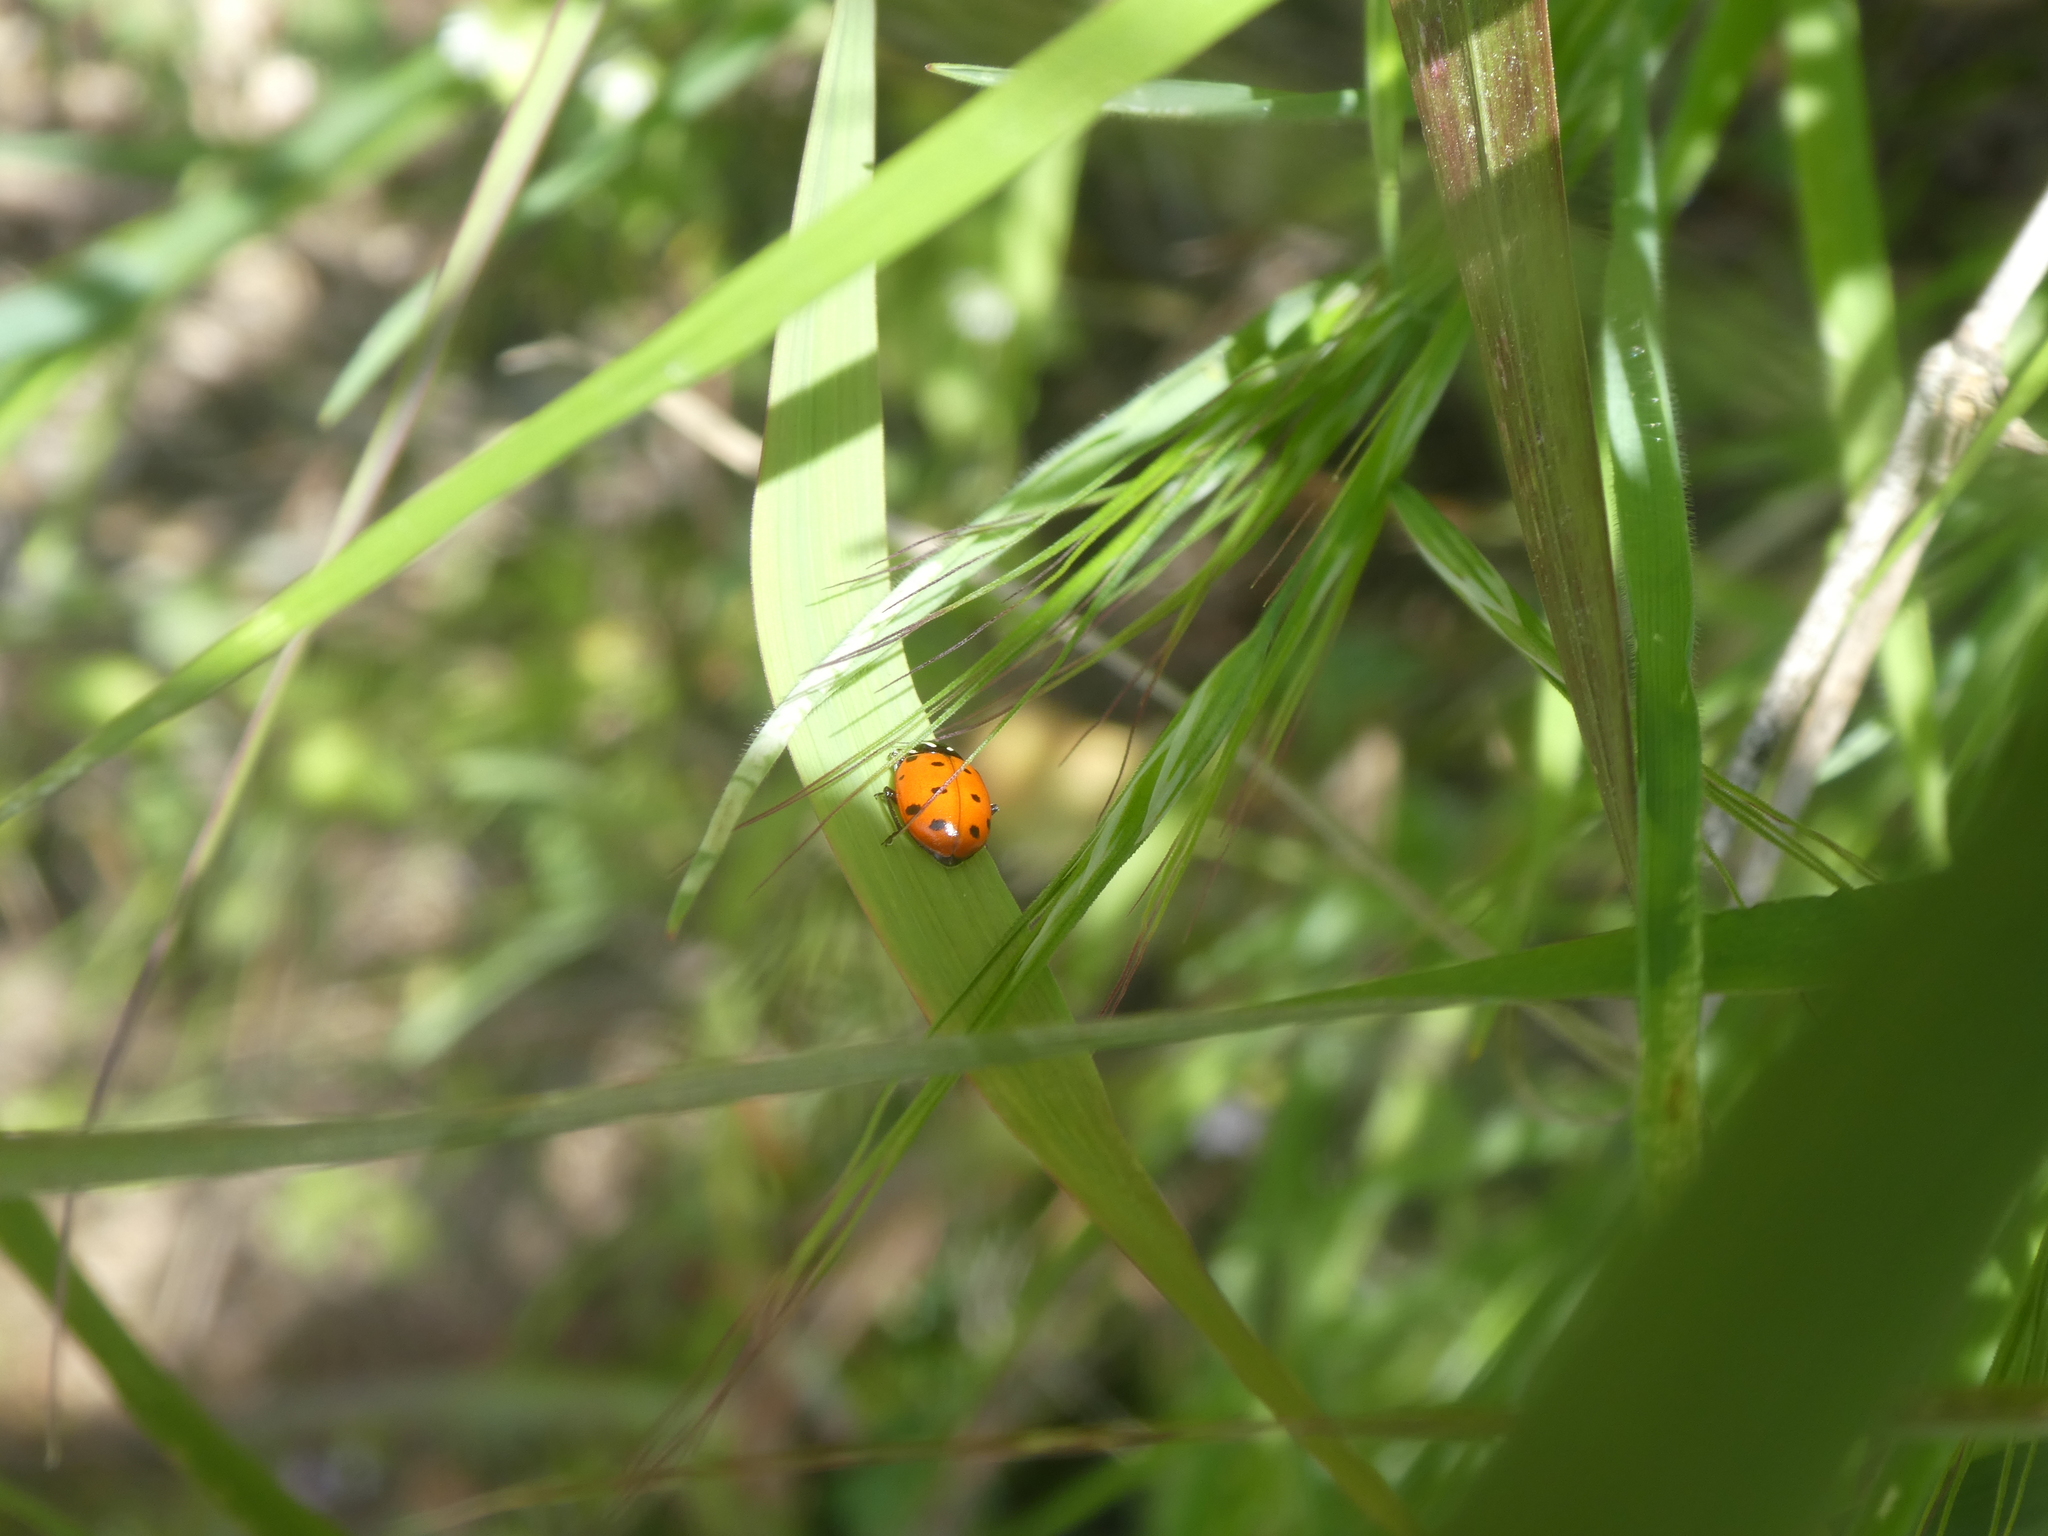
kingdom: Animalia
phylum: Arthropoda
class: Insecta
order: Coleoptera
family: Coccinellidae
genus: Hippodamia
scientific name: Hippodamia convergens
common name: Convergent lady beetle
